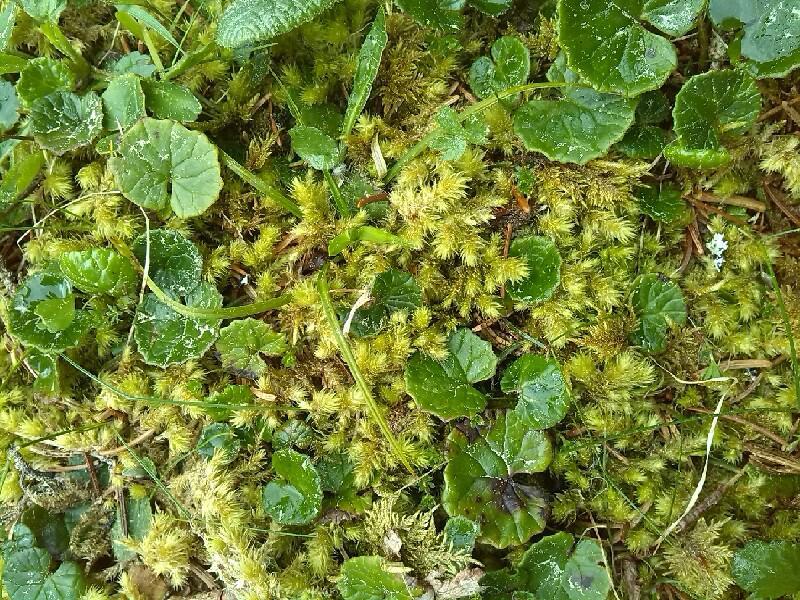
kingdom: Plantae
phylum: Bryophyta
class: Bryopsida
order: Hypnales
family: Hylocomiaceae
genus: Hylocomiadelphus
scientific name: Hylocomiadelphus triquetrus
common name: Rough goose neck moss
